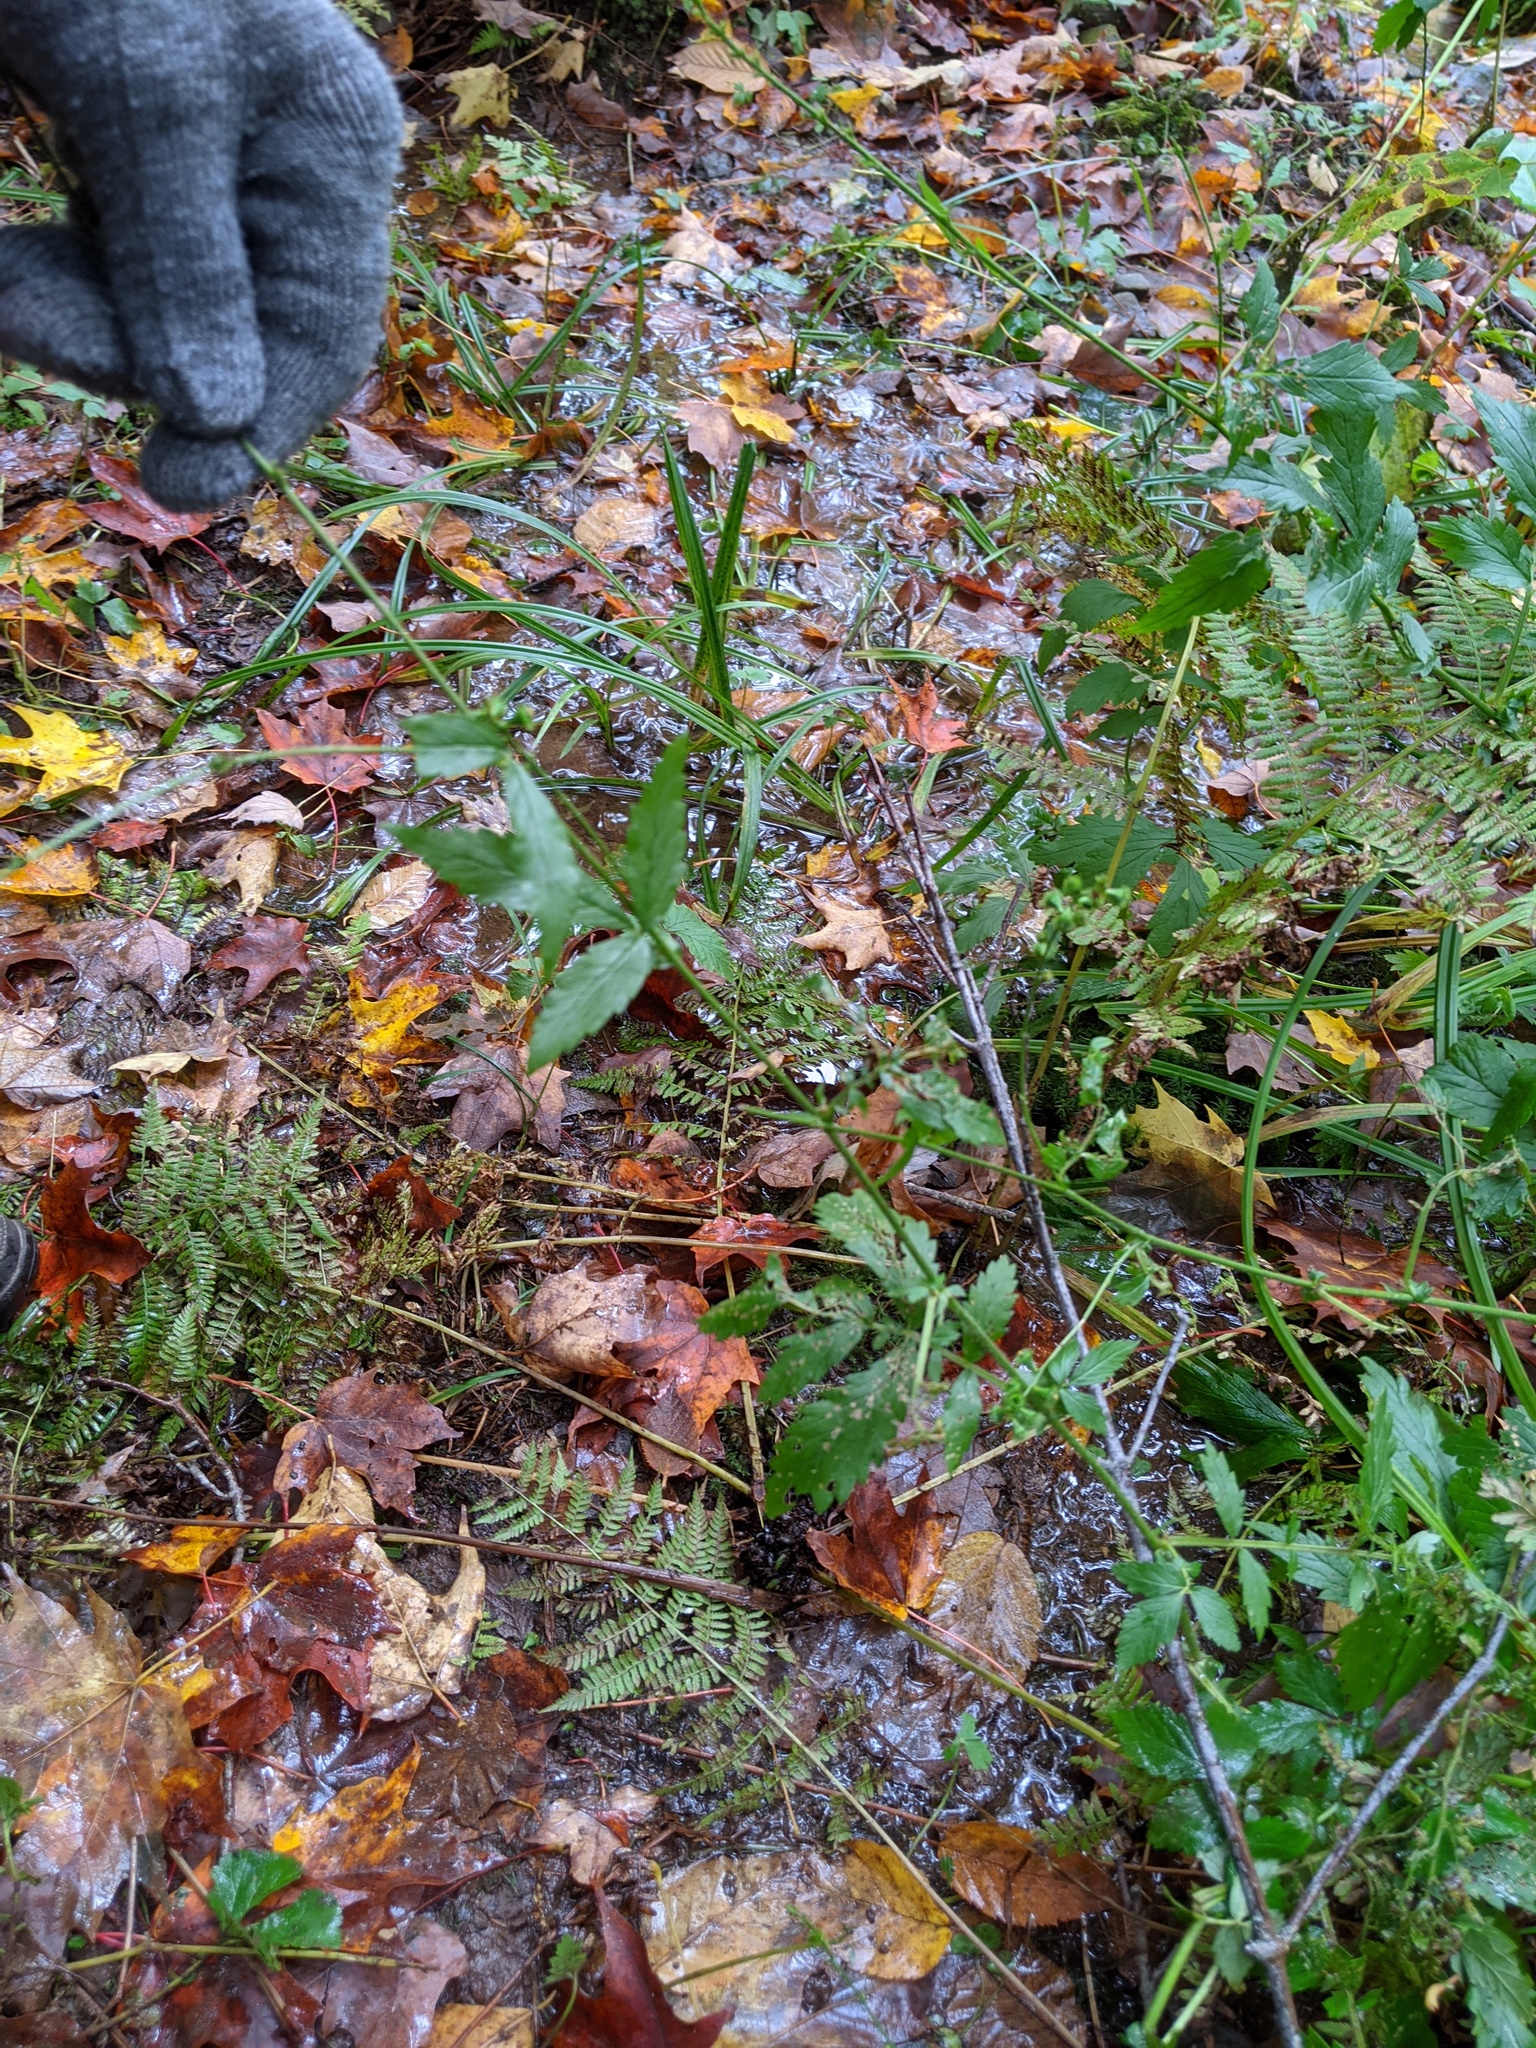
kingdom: Plantae
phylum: Tracheophyta
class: Magnoliopsida
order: Rosales
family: Rosaceae
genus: Agrimonia
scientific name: Agrimonia striata
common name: Britton's agrimony
